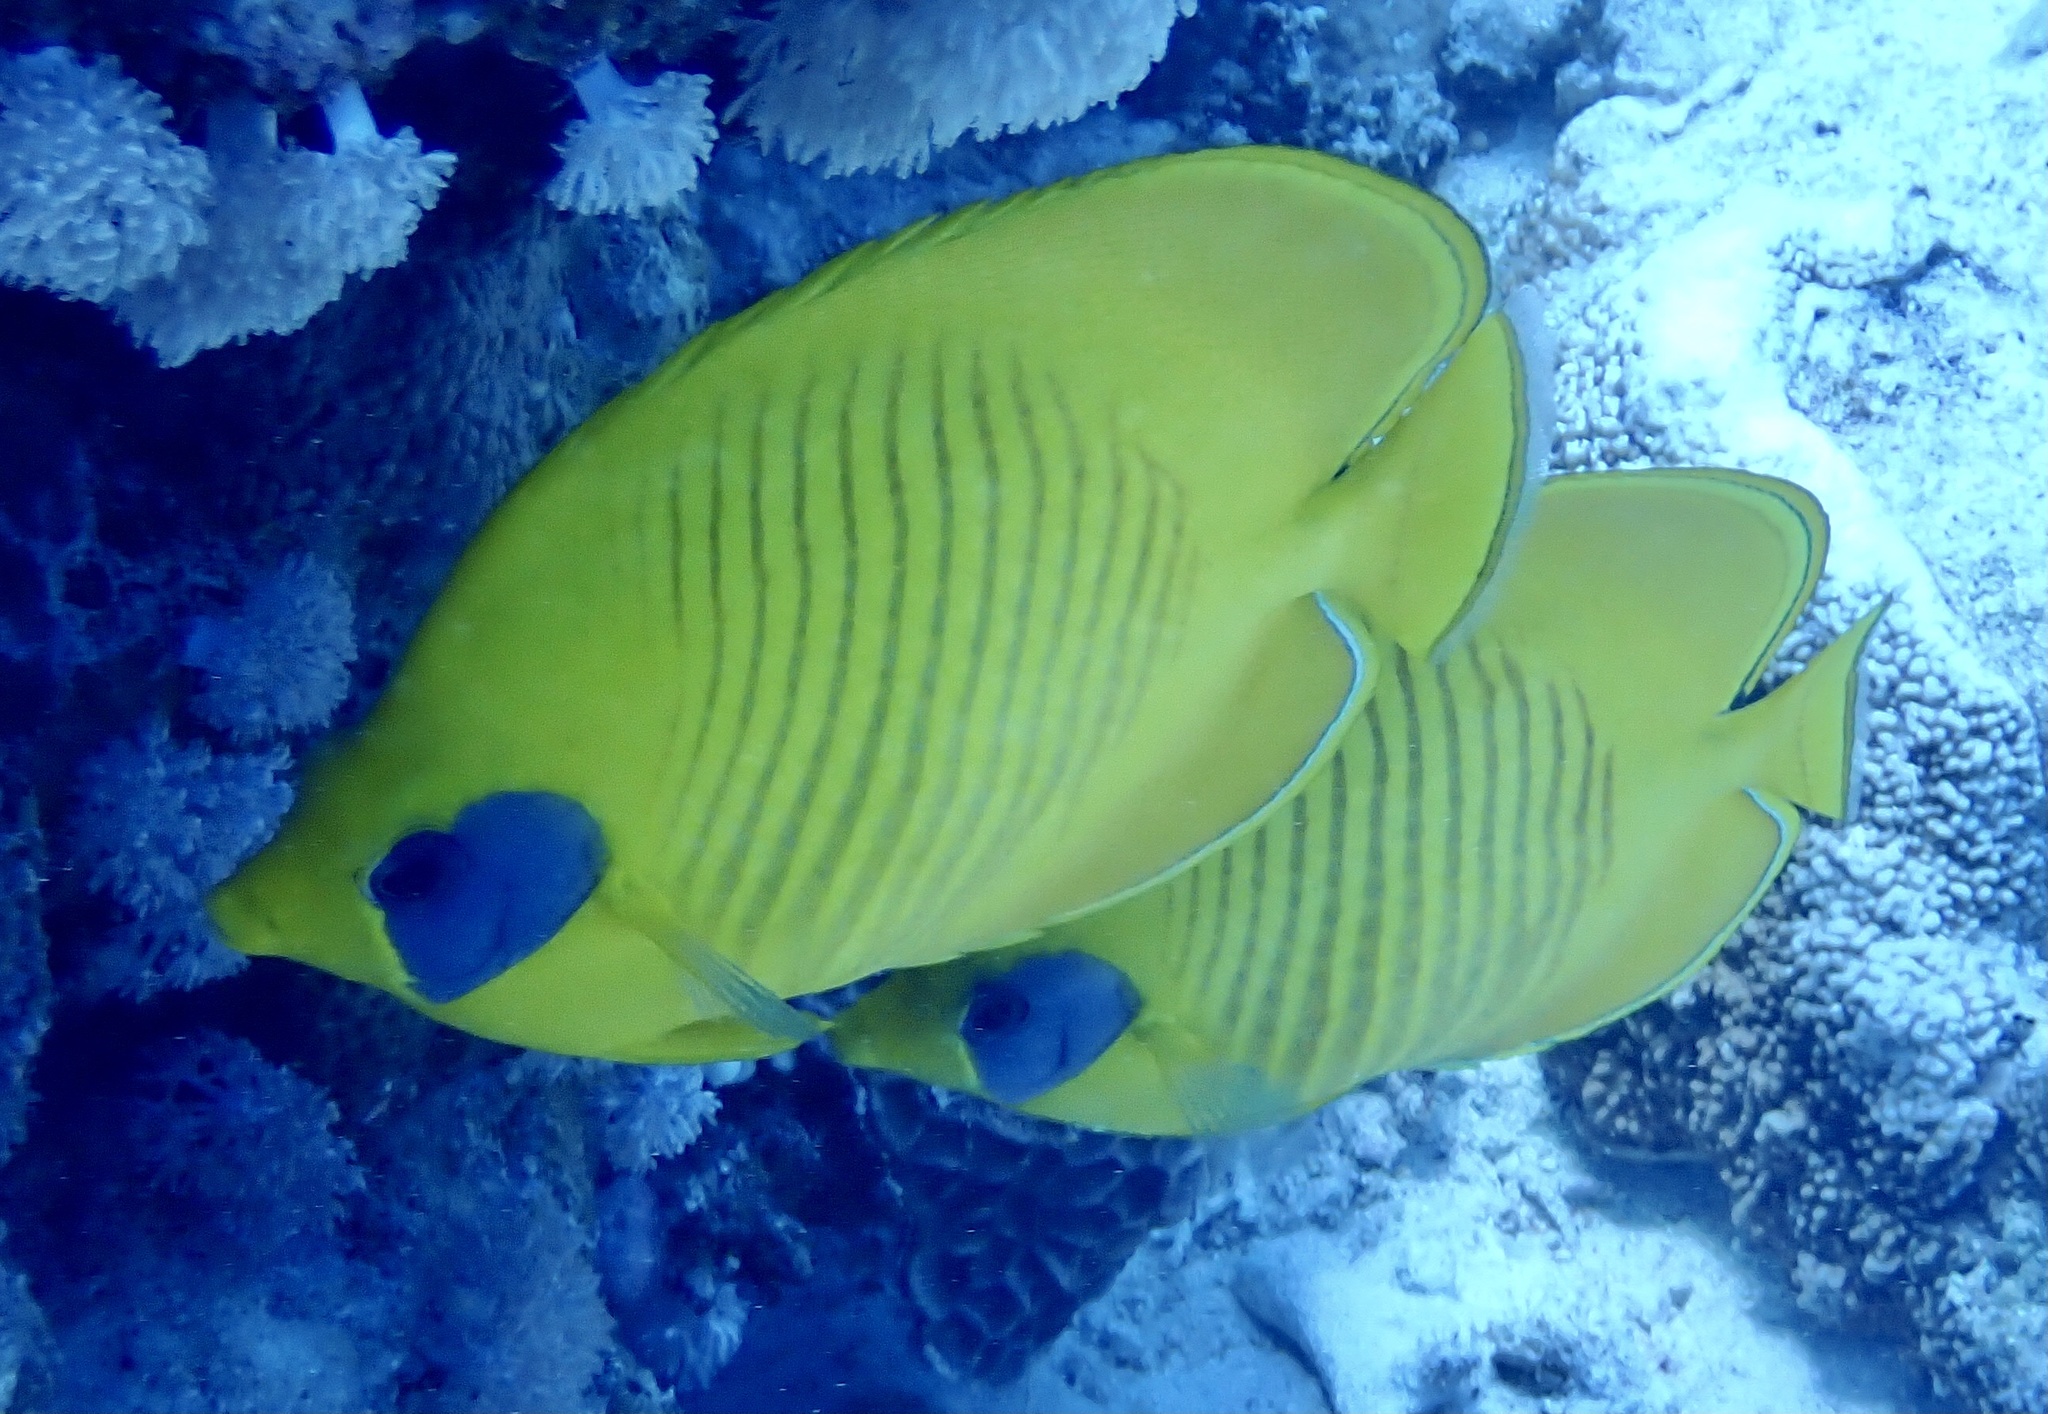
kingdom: Animalia
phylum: Chordata
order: Perciformes
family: Chaetodontidae
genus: Chaetodon
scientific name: Chaetodon semilarvatus
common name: Golden butterflyfish
